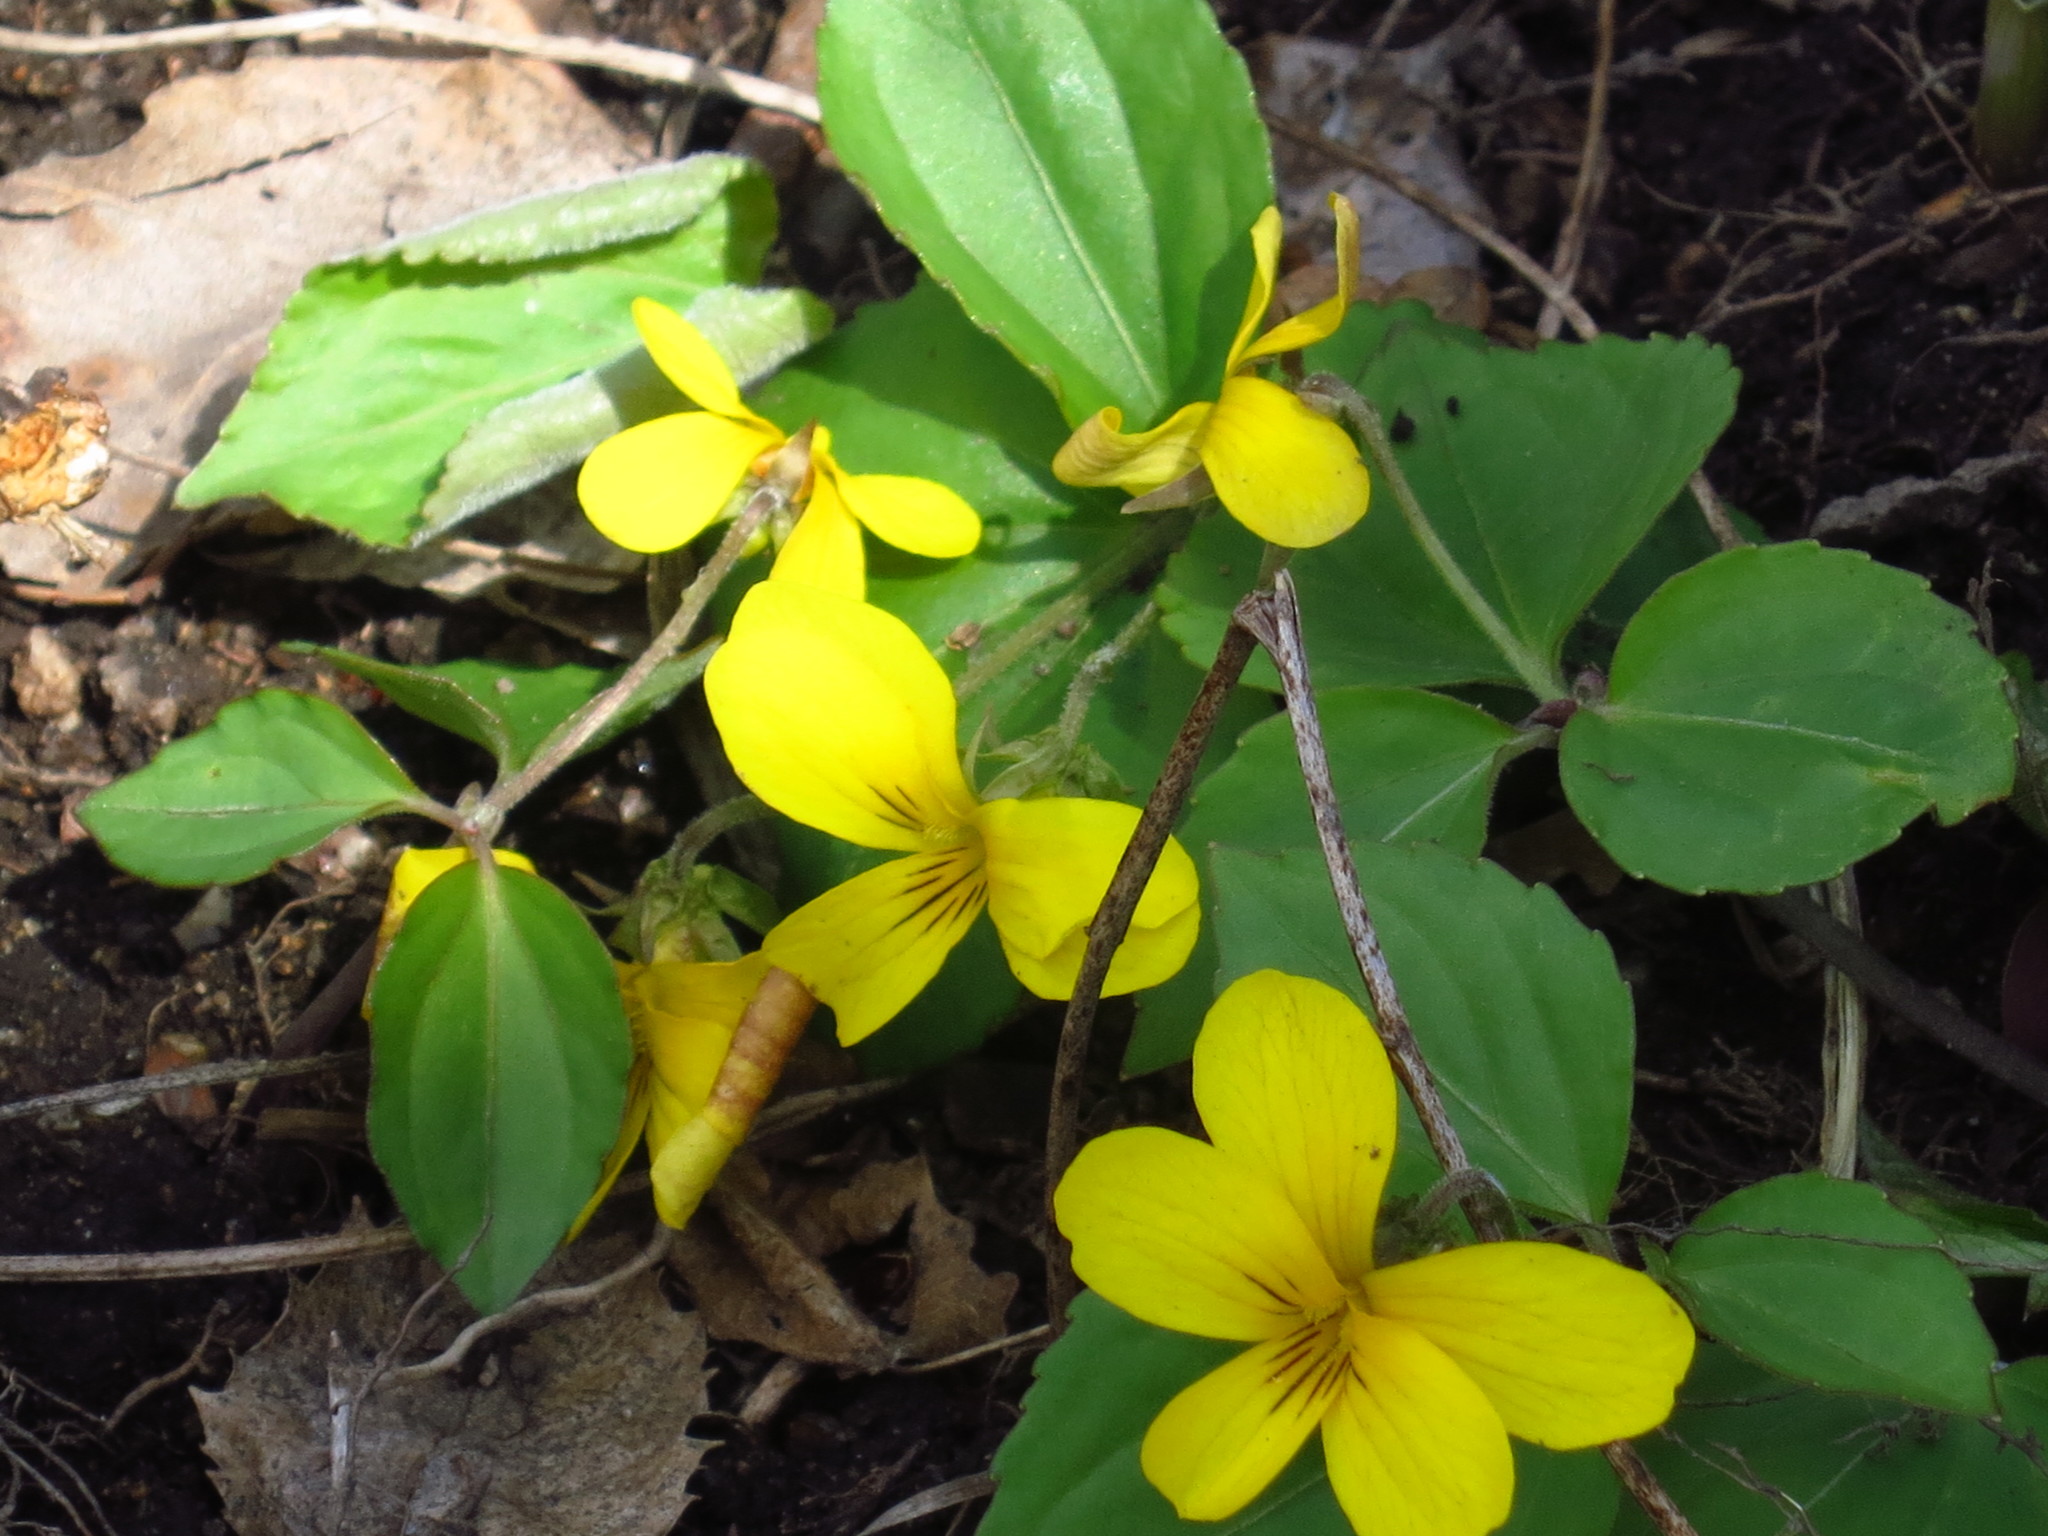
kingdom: Plantae
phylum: Tracheophyta
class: Magnoliopsida
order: Malpighiales
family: Violaceae
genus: Viola
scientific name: Viola orientalis
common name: Golden violet
